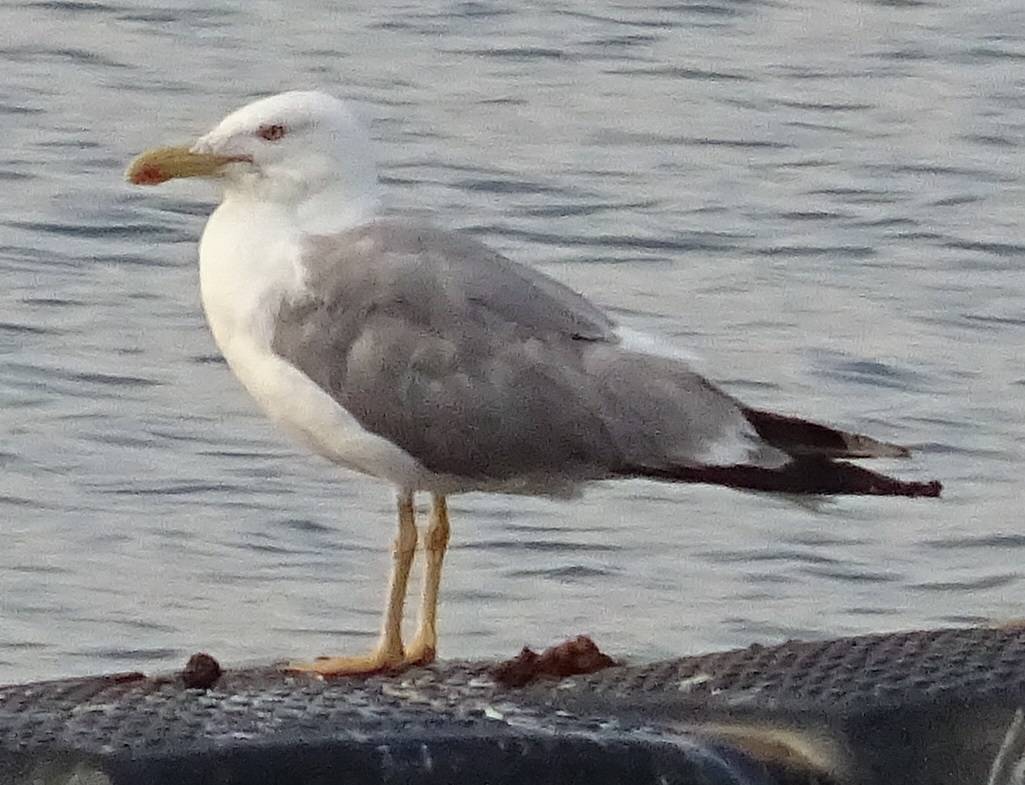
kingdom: Animalia
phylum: Chordata
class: Aves
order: Charadriiformes
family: Laridae
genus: Larus
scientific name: Larus michahellis
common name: Yellow-legged gull
